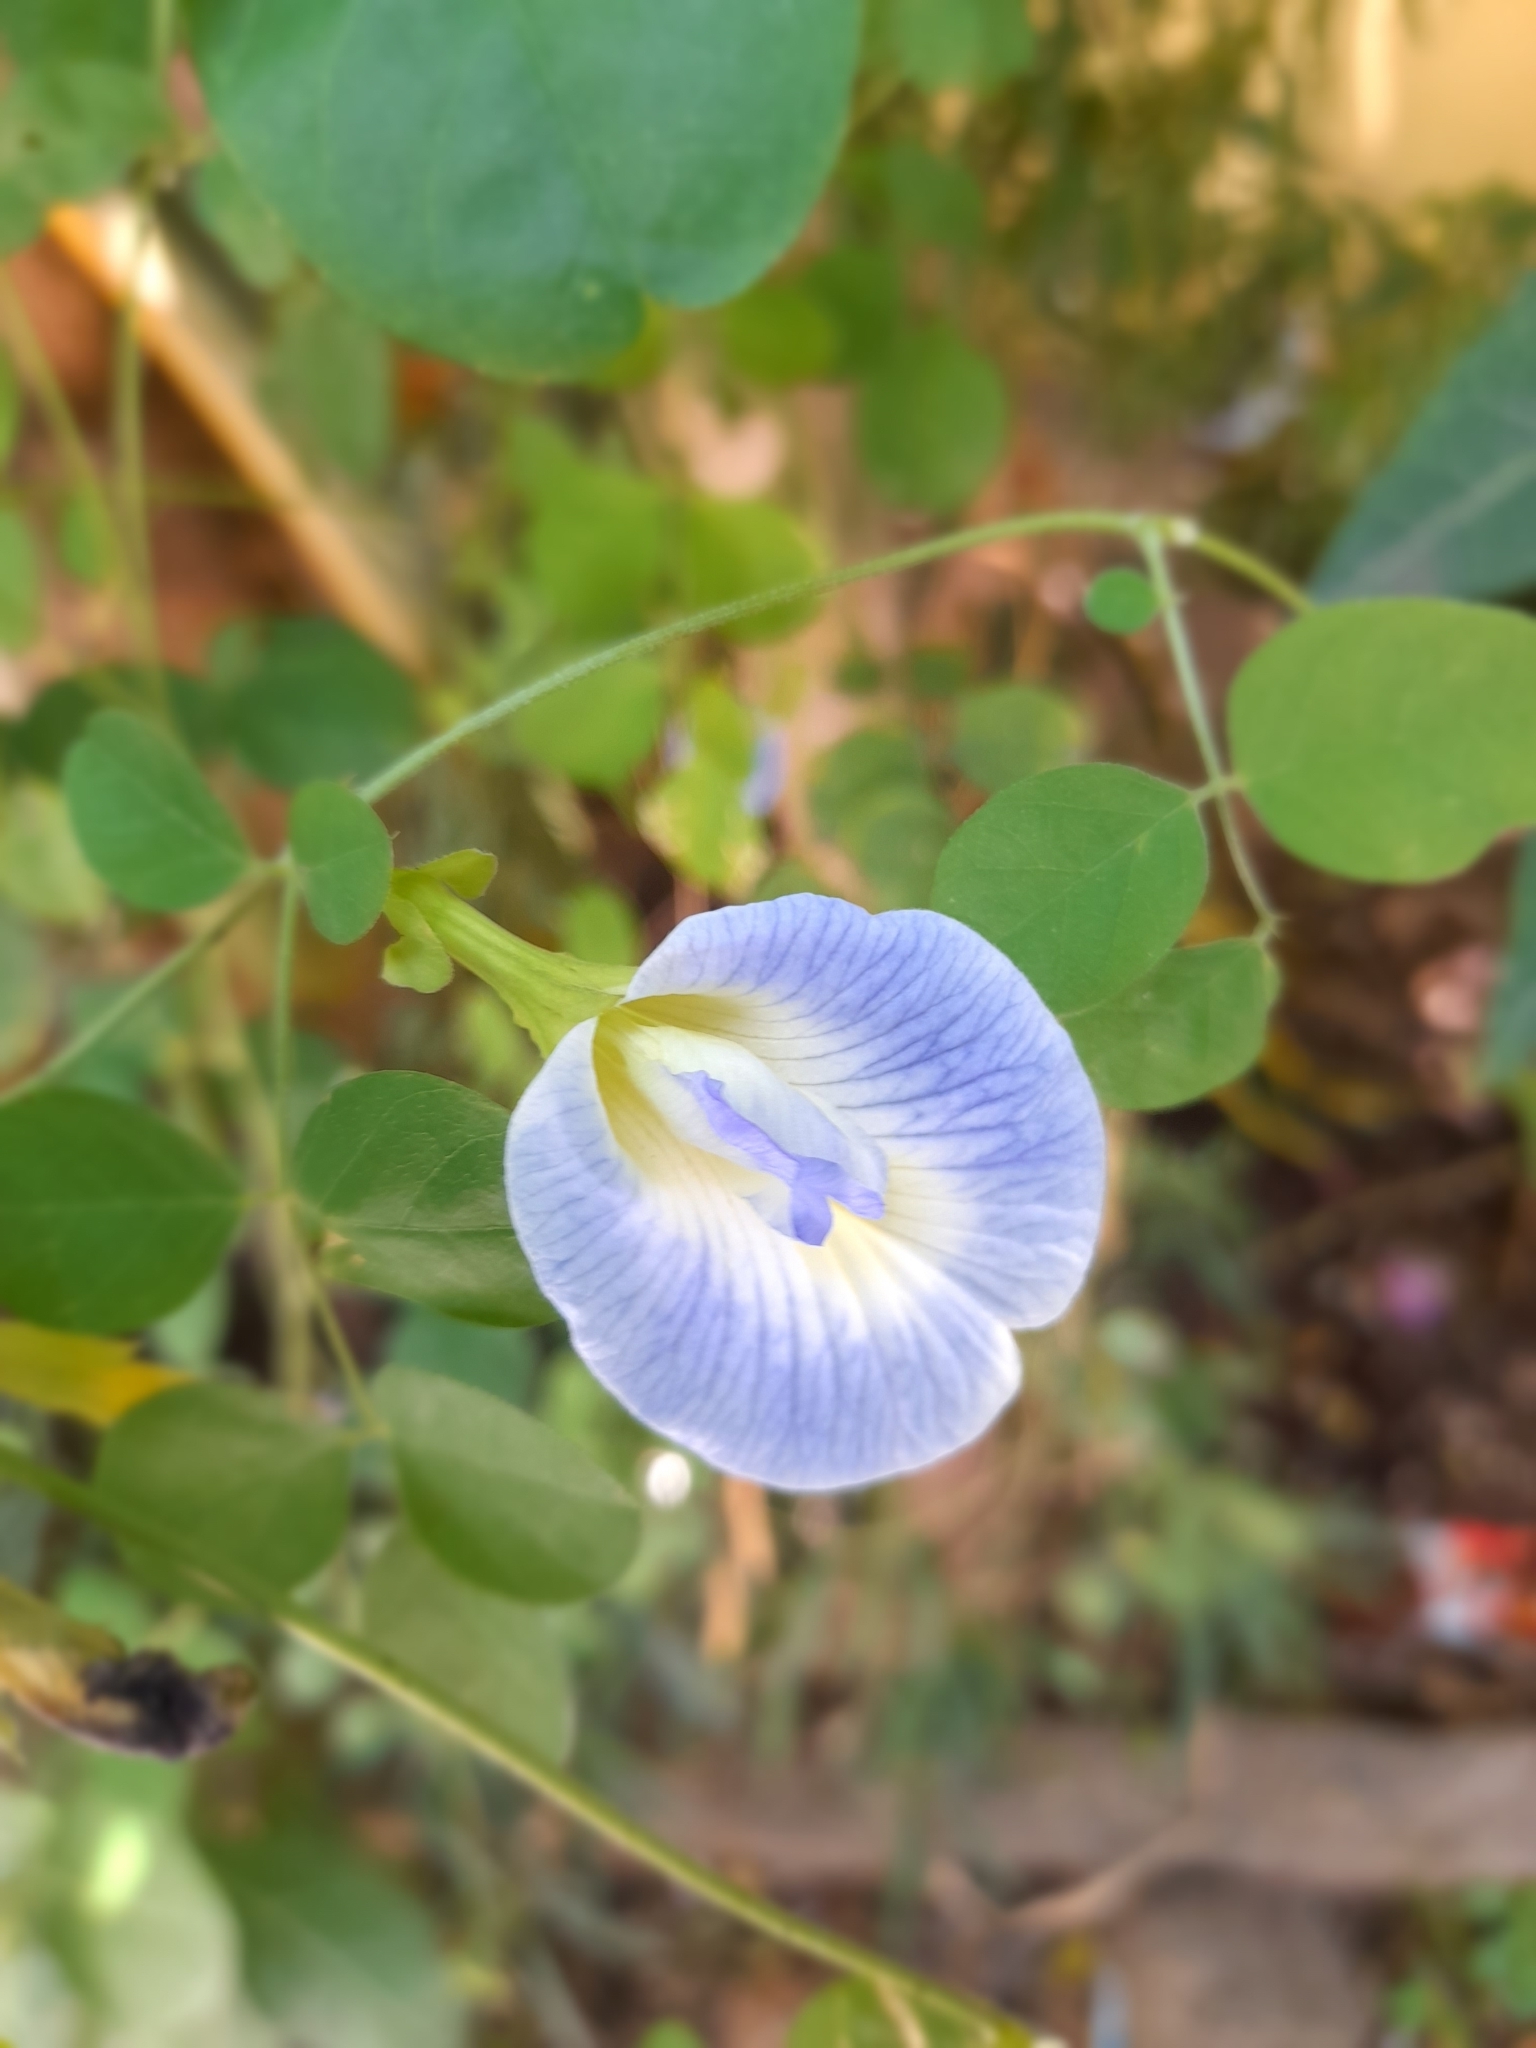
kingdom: Plantae
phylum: Tracheophyta
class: Magnoliopsida
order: Fabales
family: Fabaceae
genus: Clitoria
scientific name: Clitoria ternatea
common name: Asian pigeonwings
